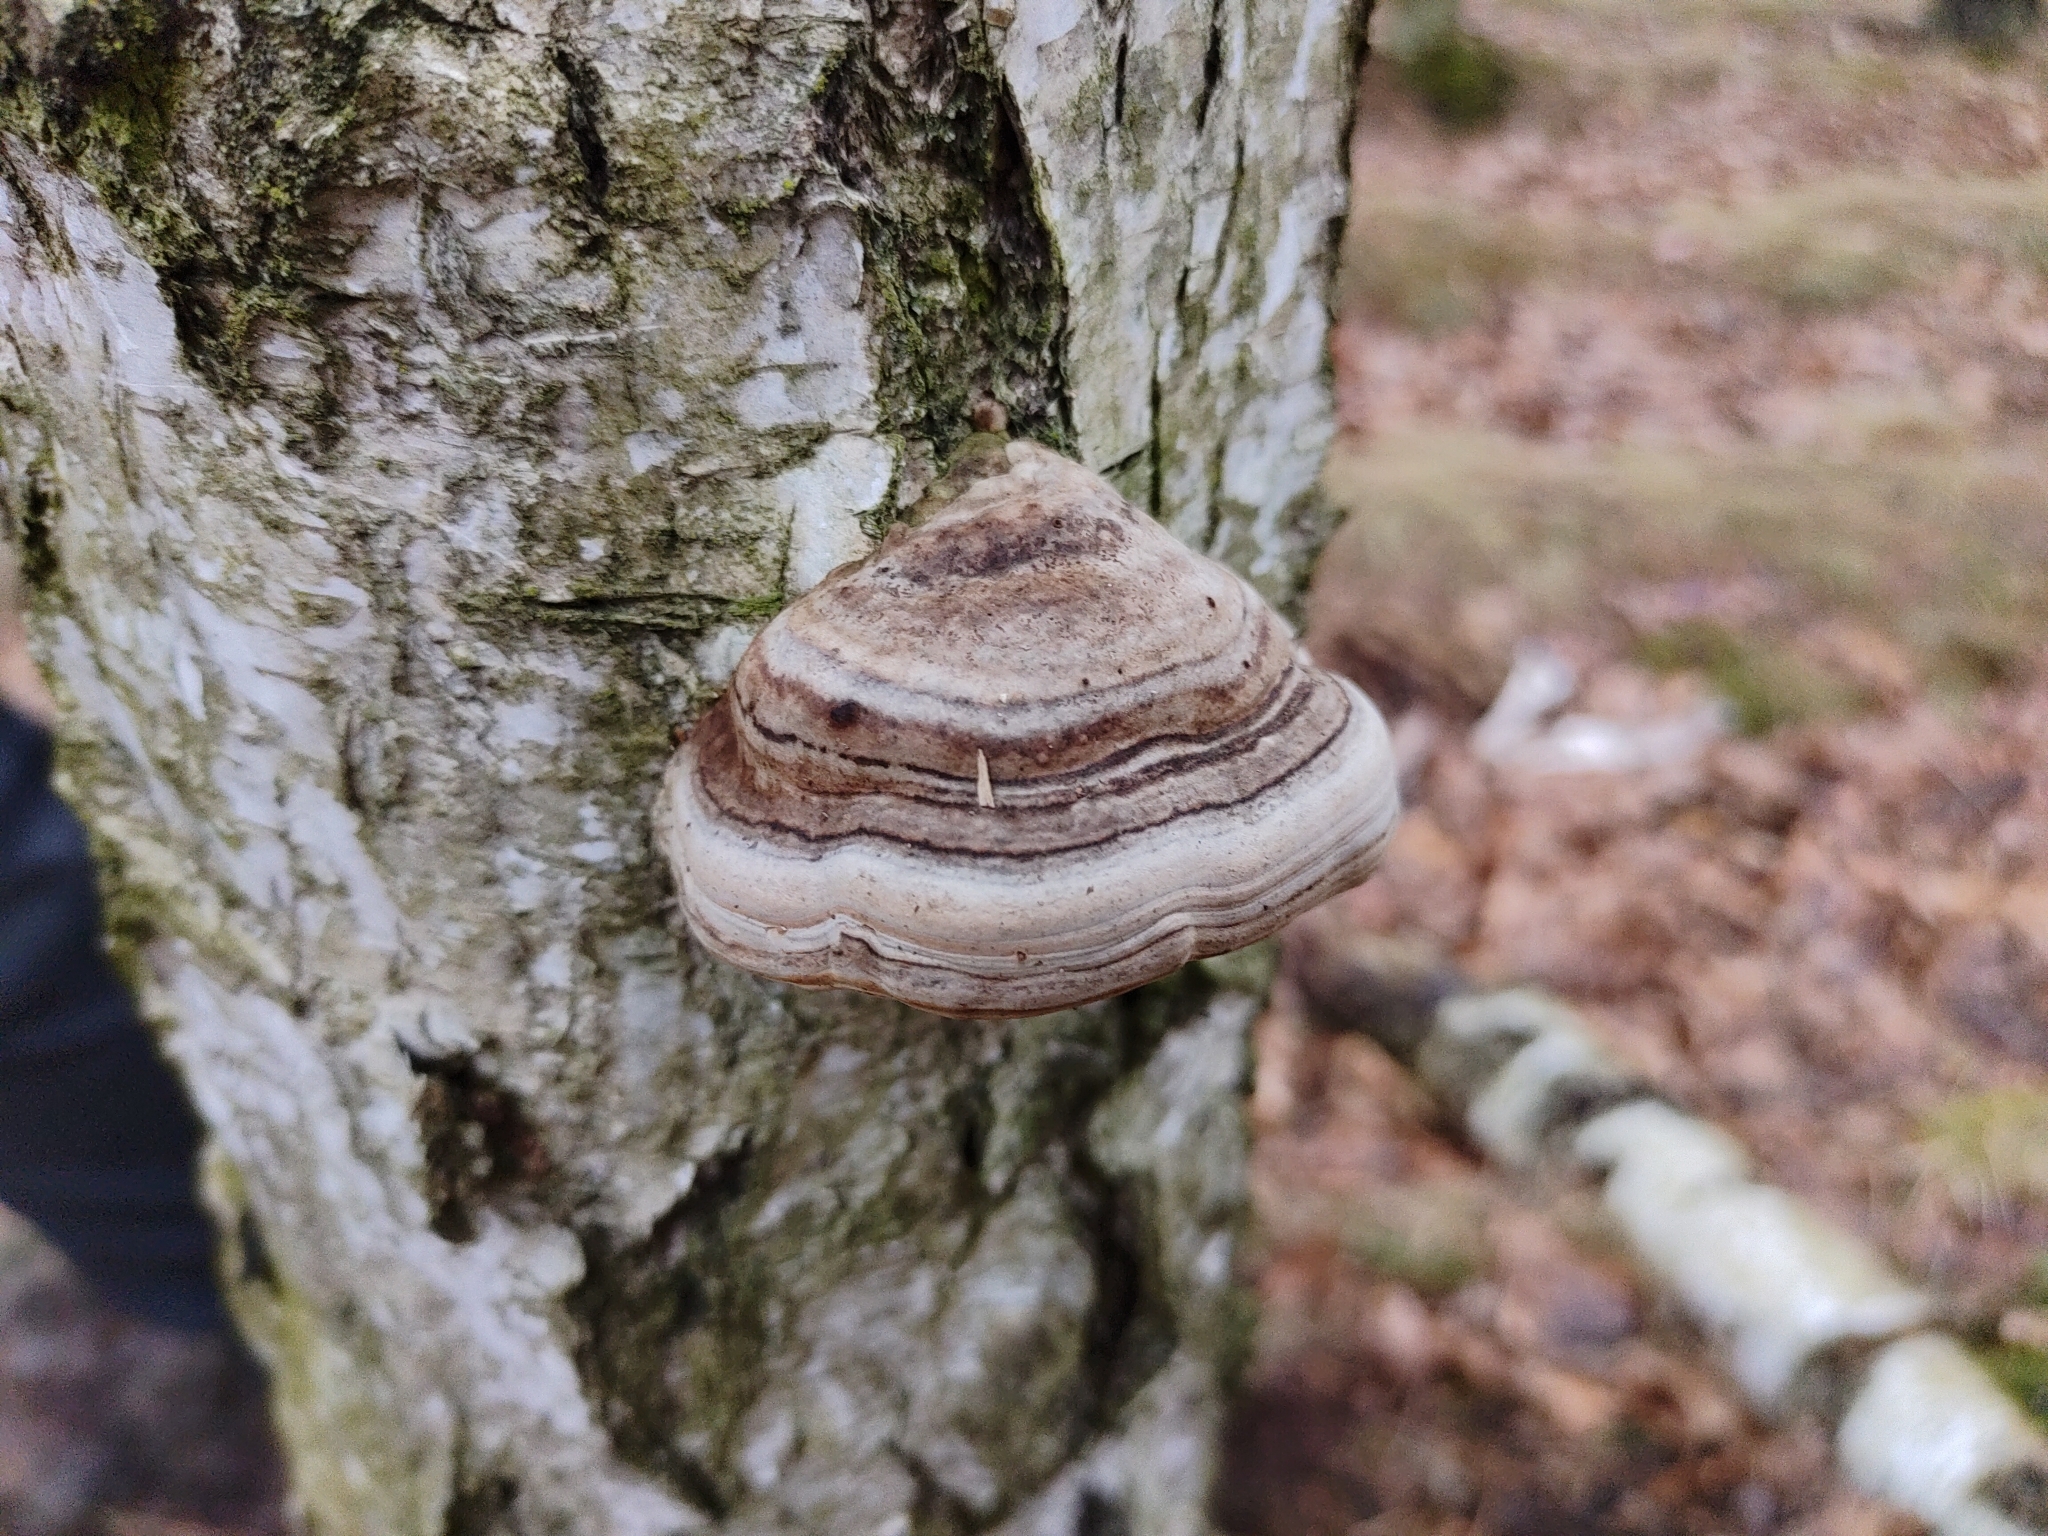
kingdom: Fungi
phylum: Basidiomycota
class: Agaricomycetes
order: Polyporales
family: Polyporaceae
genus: Fomes
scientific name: Fomes fomentarius
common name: Hoof fungus
